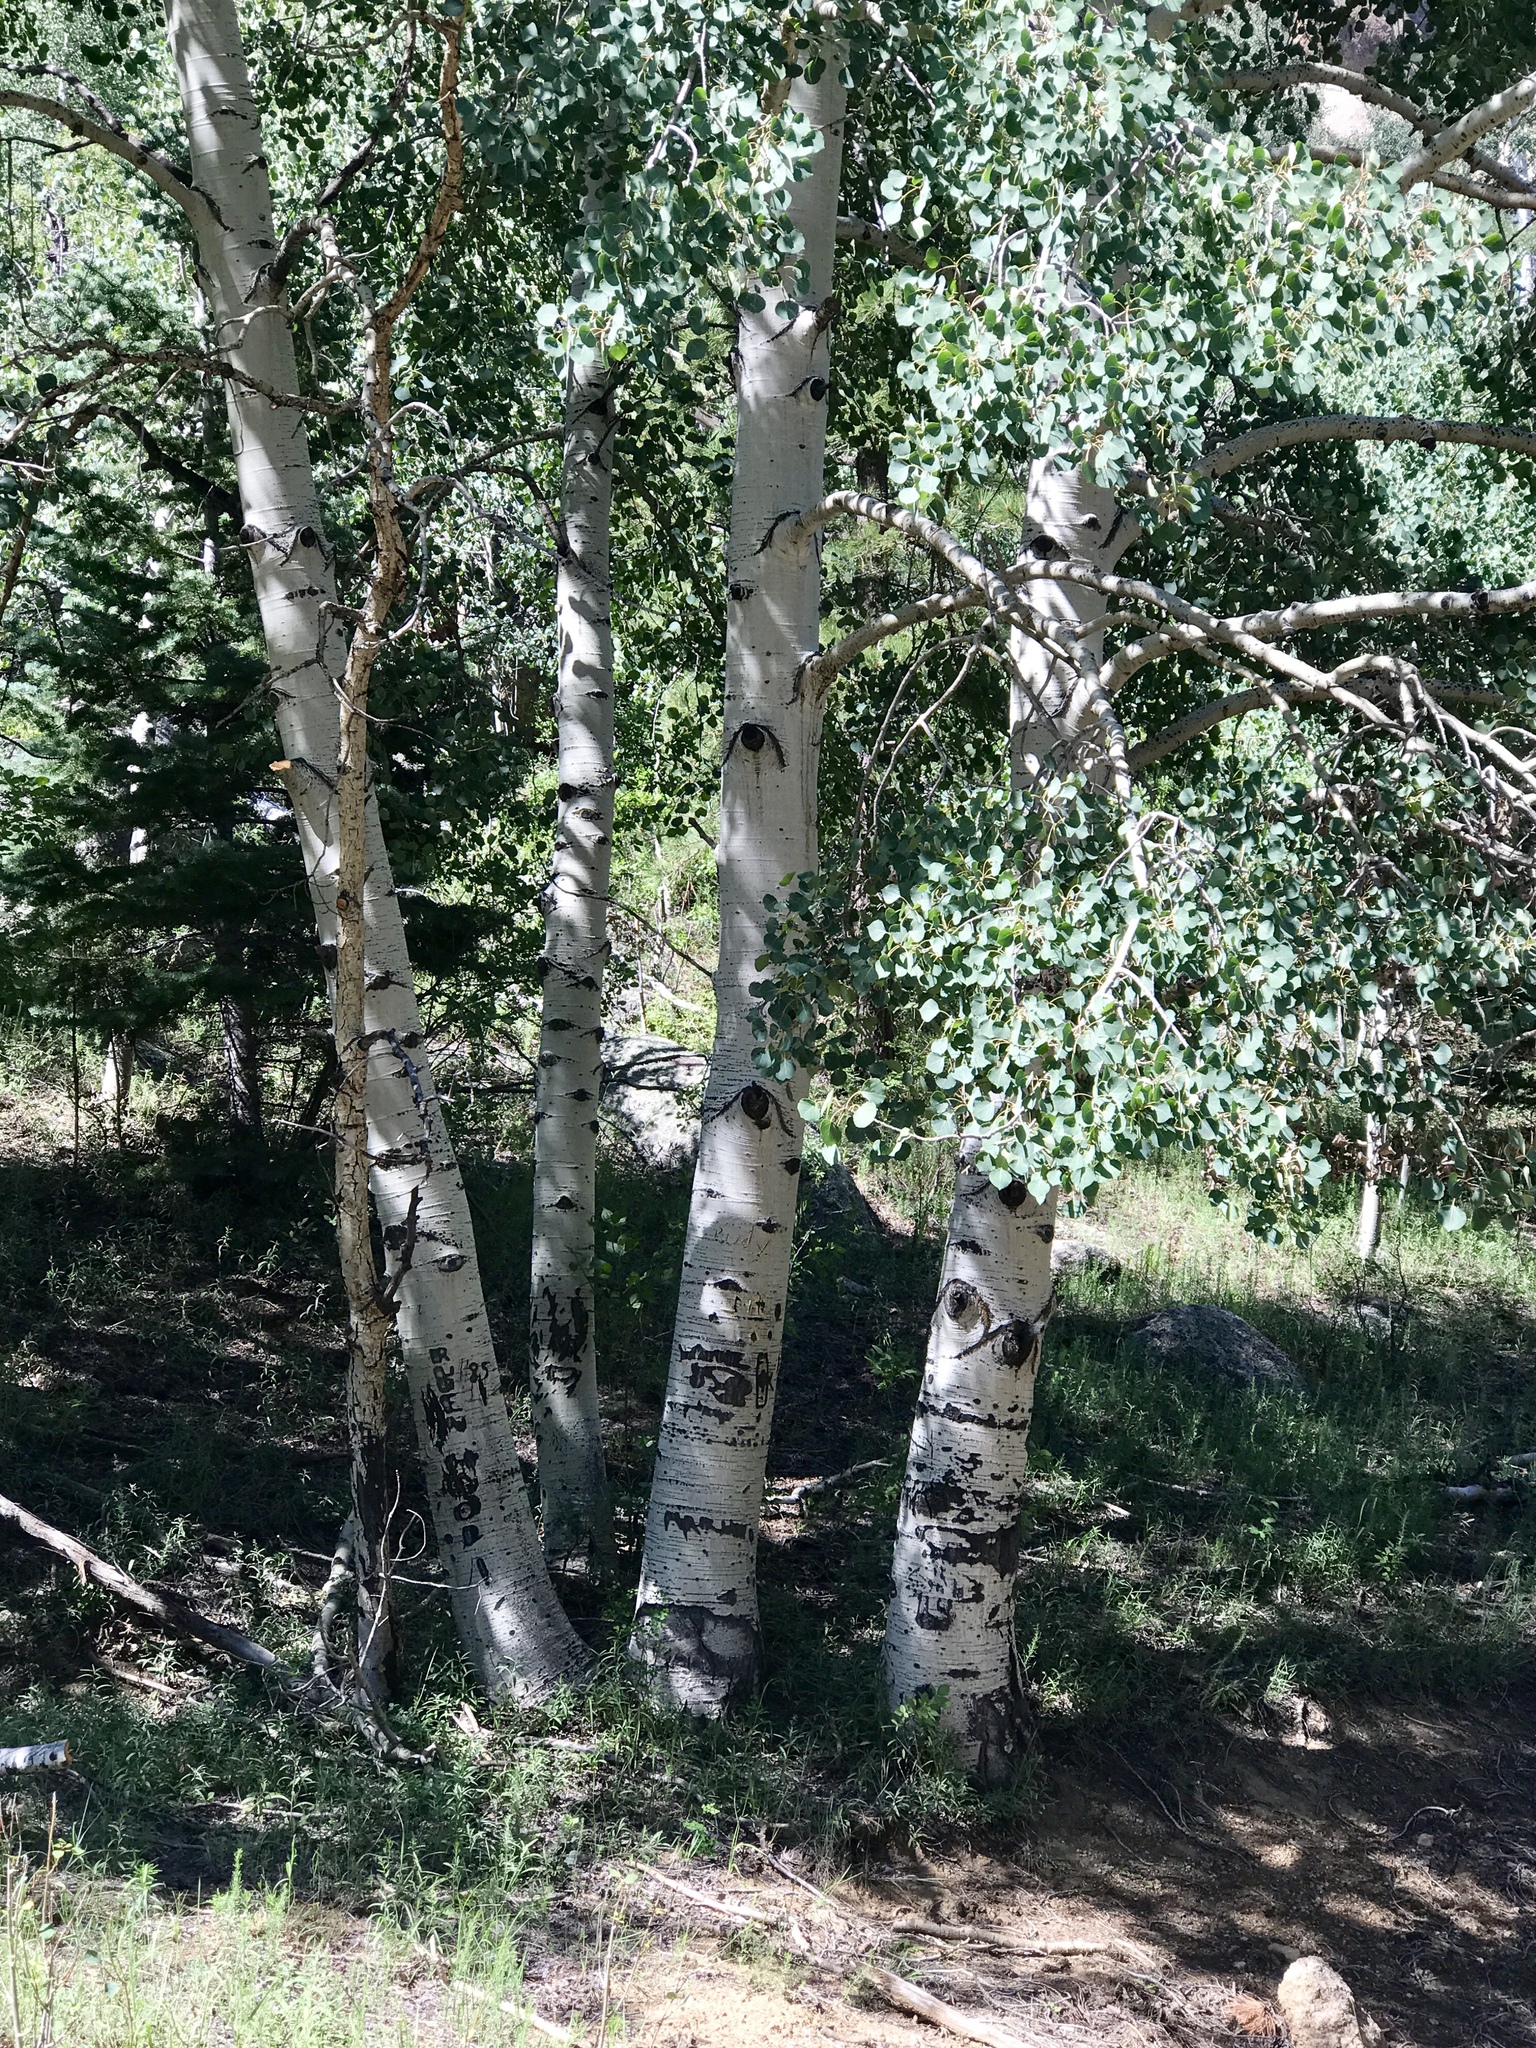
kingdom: Plantae
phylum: Tracheophyta
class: Magnoliopsida
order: Malpighiales
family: Salicaceae
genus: Populus
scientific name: Populus tremuloides
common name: Quaking aspen
